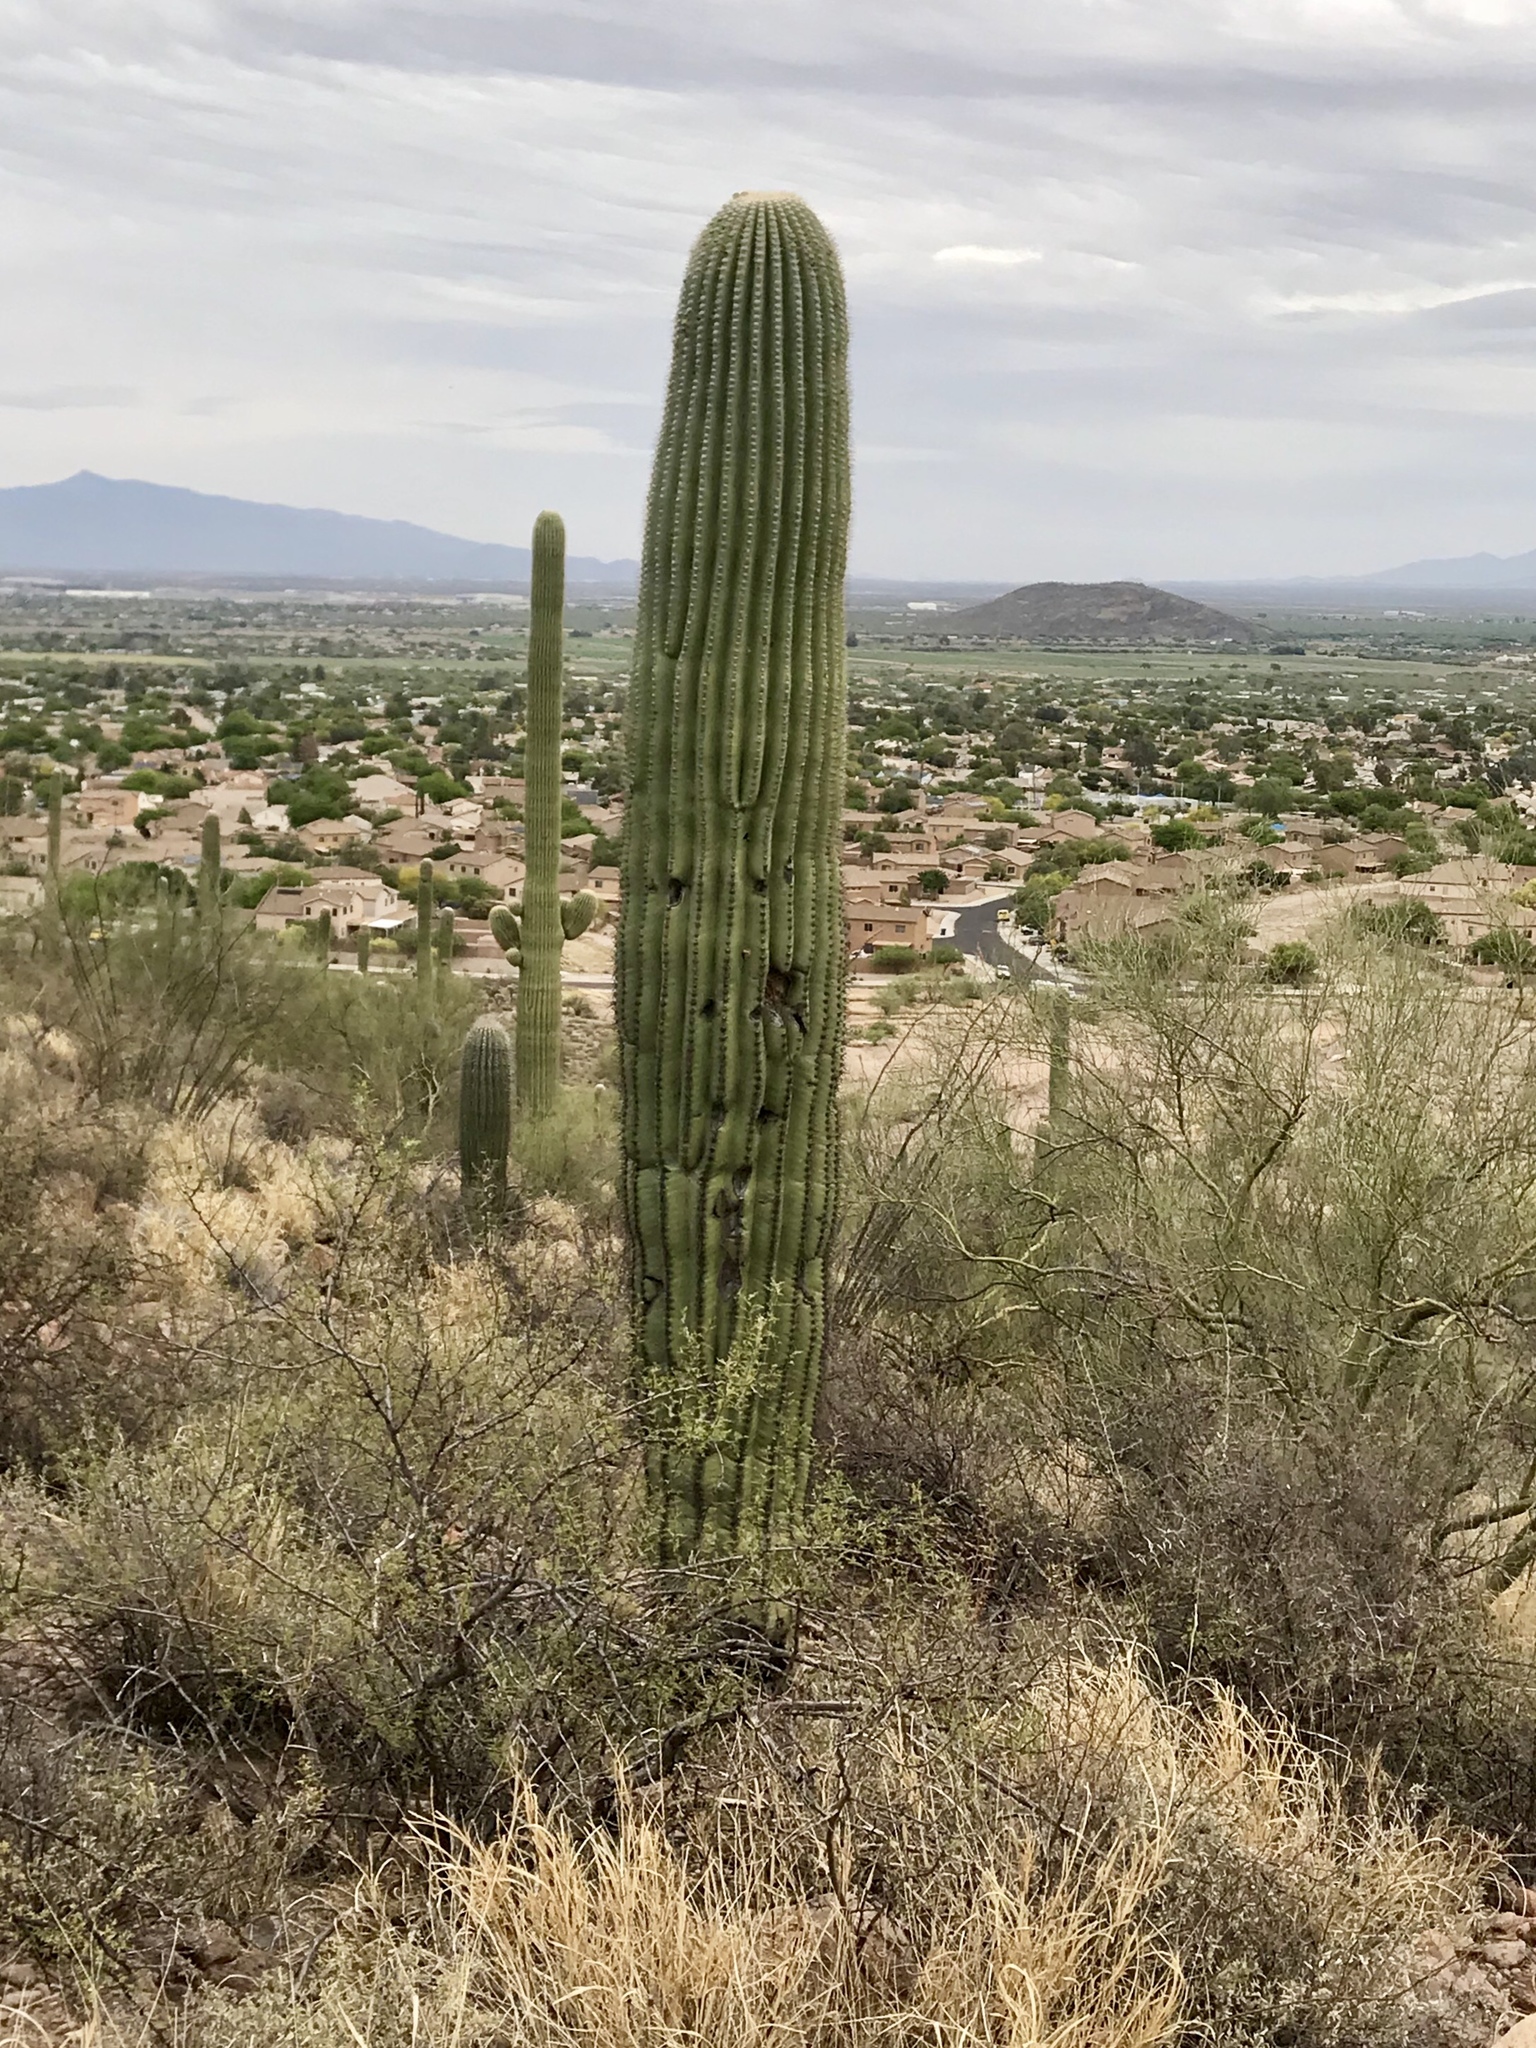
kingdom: Plantae
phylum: Tracheophyta
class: Magnoliopsida
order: Caryophyllales
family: Cactaceae
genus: Carnegiea
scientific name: Carnegiea gigantea
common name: Saguaro
